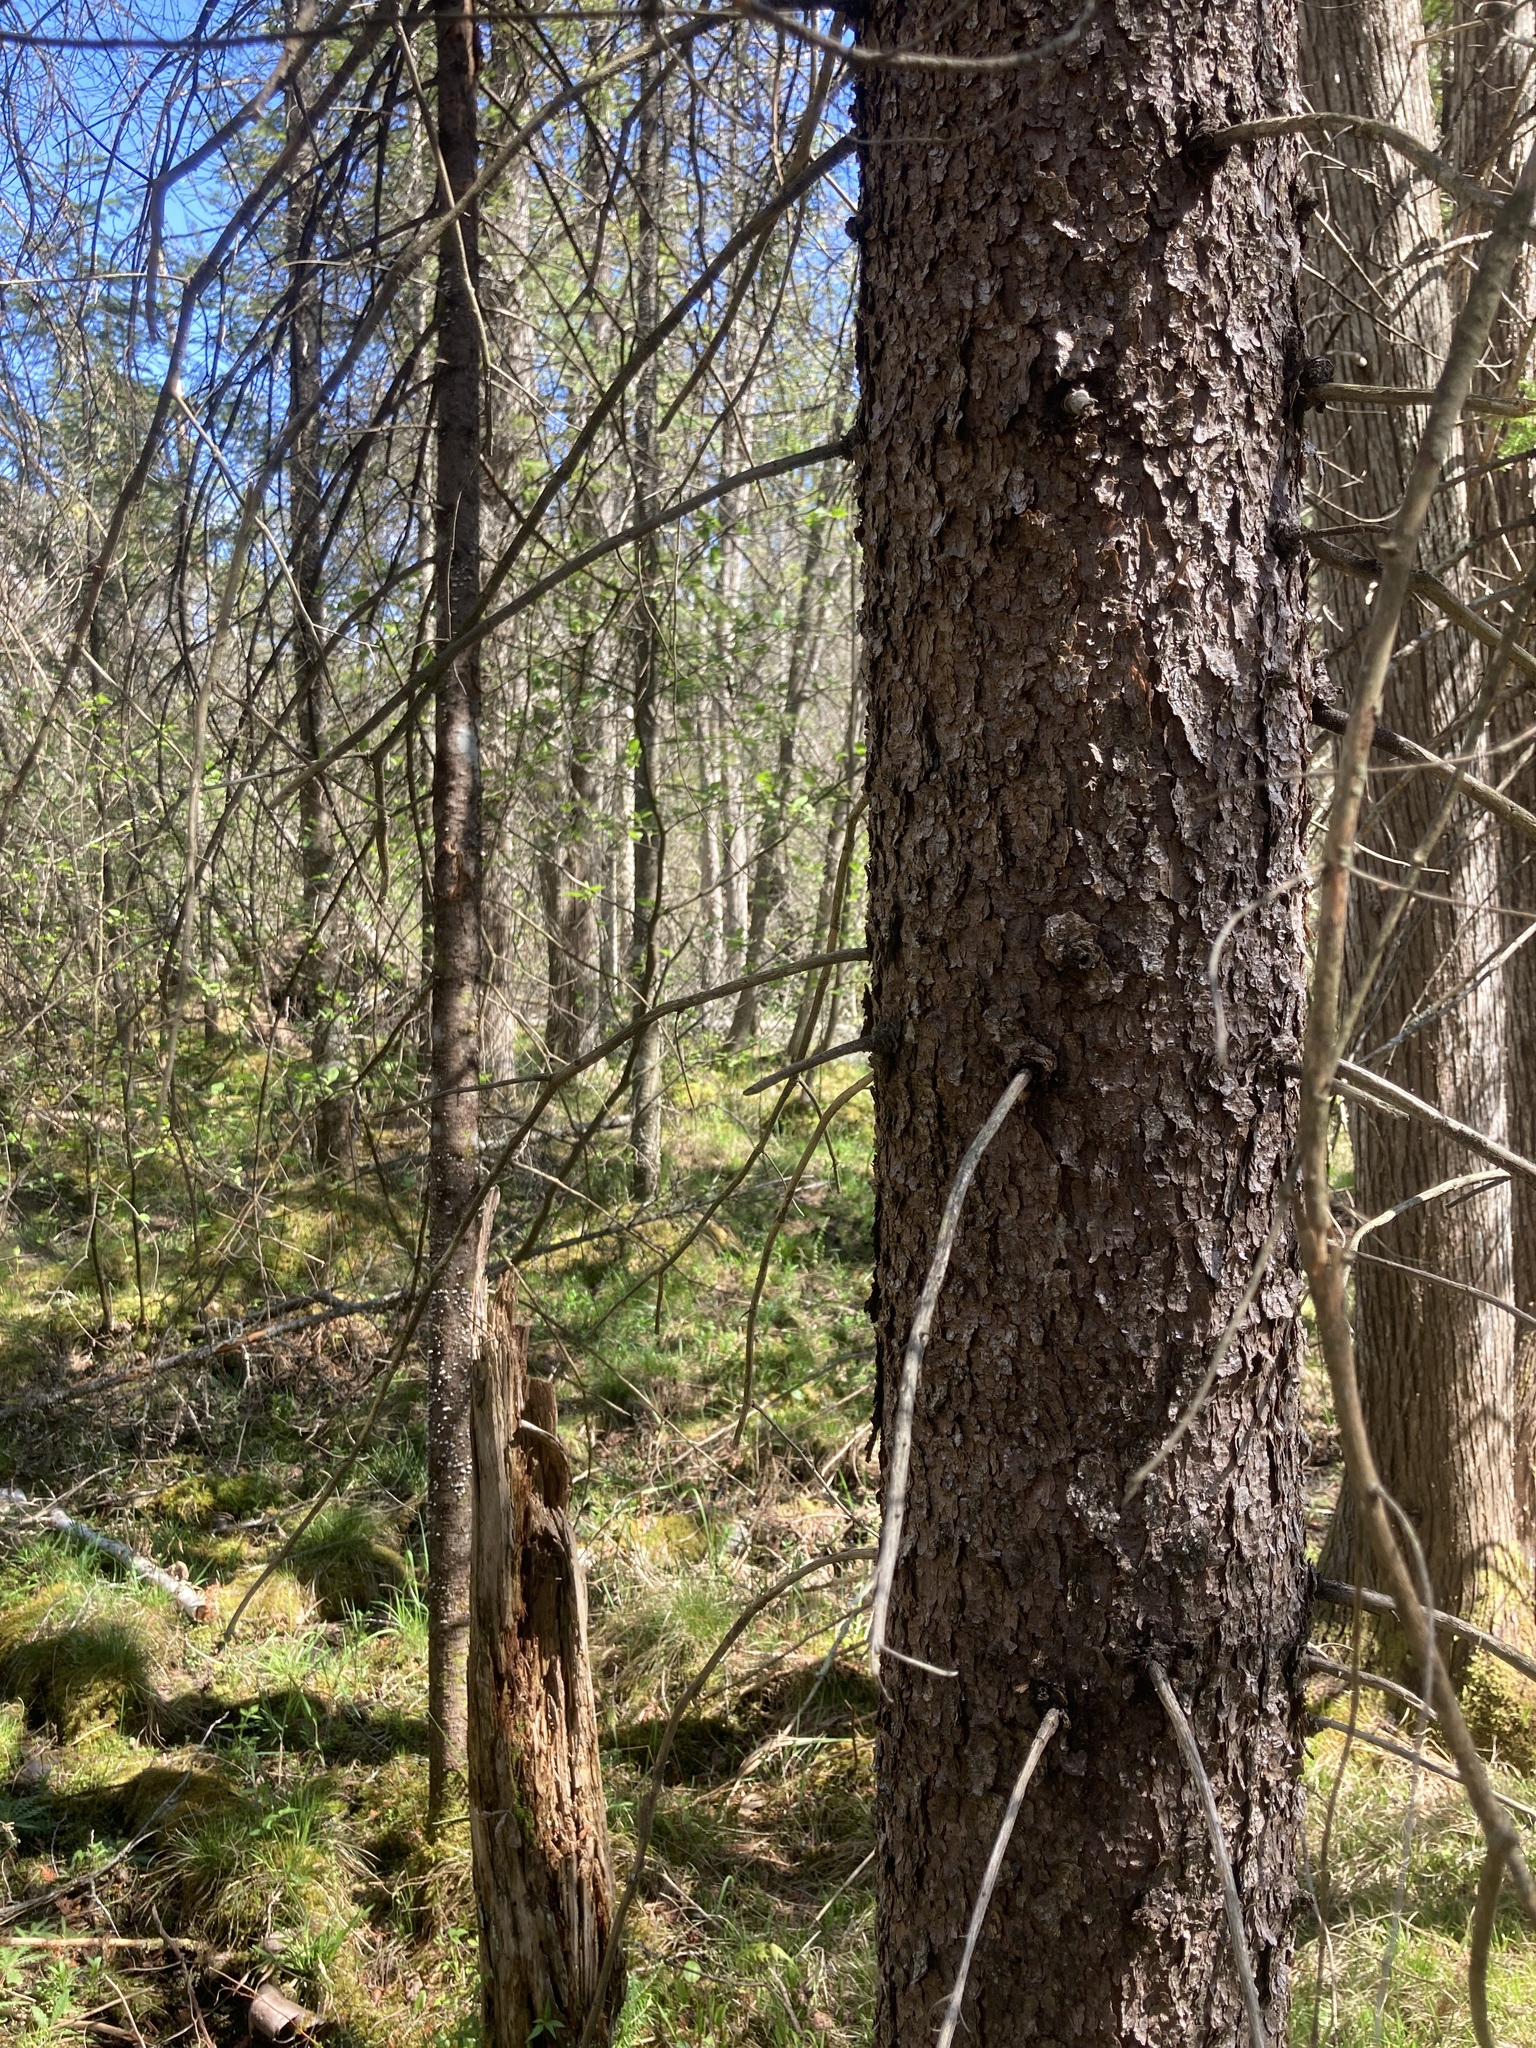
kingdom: Plantae
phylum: Tracheophyta
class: Pinopsida
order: Pinales
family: Pinaceae
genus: Picea
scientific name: Picea mariana
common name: Black spruce
